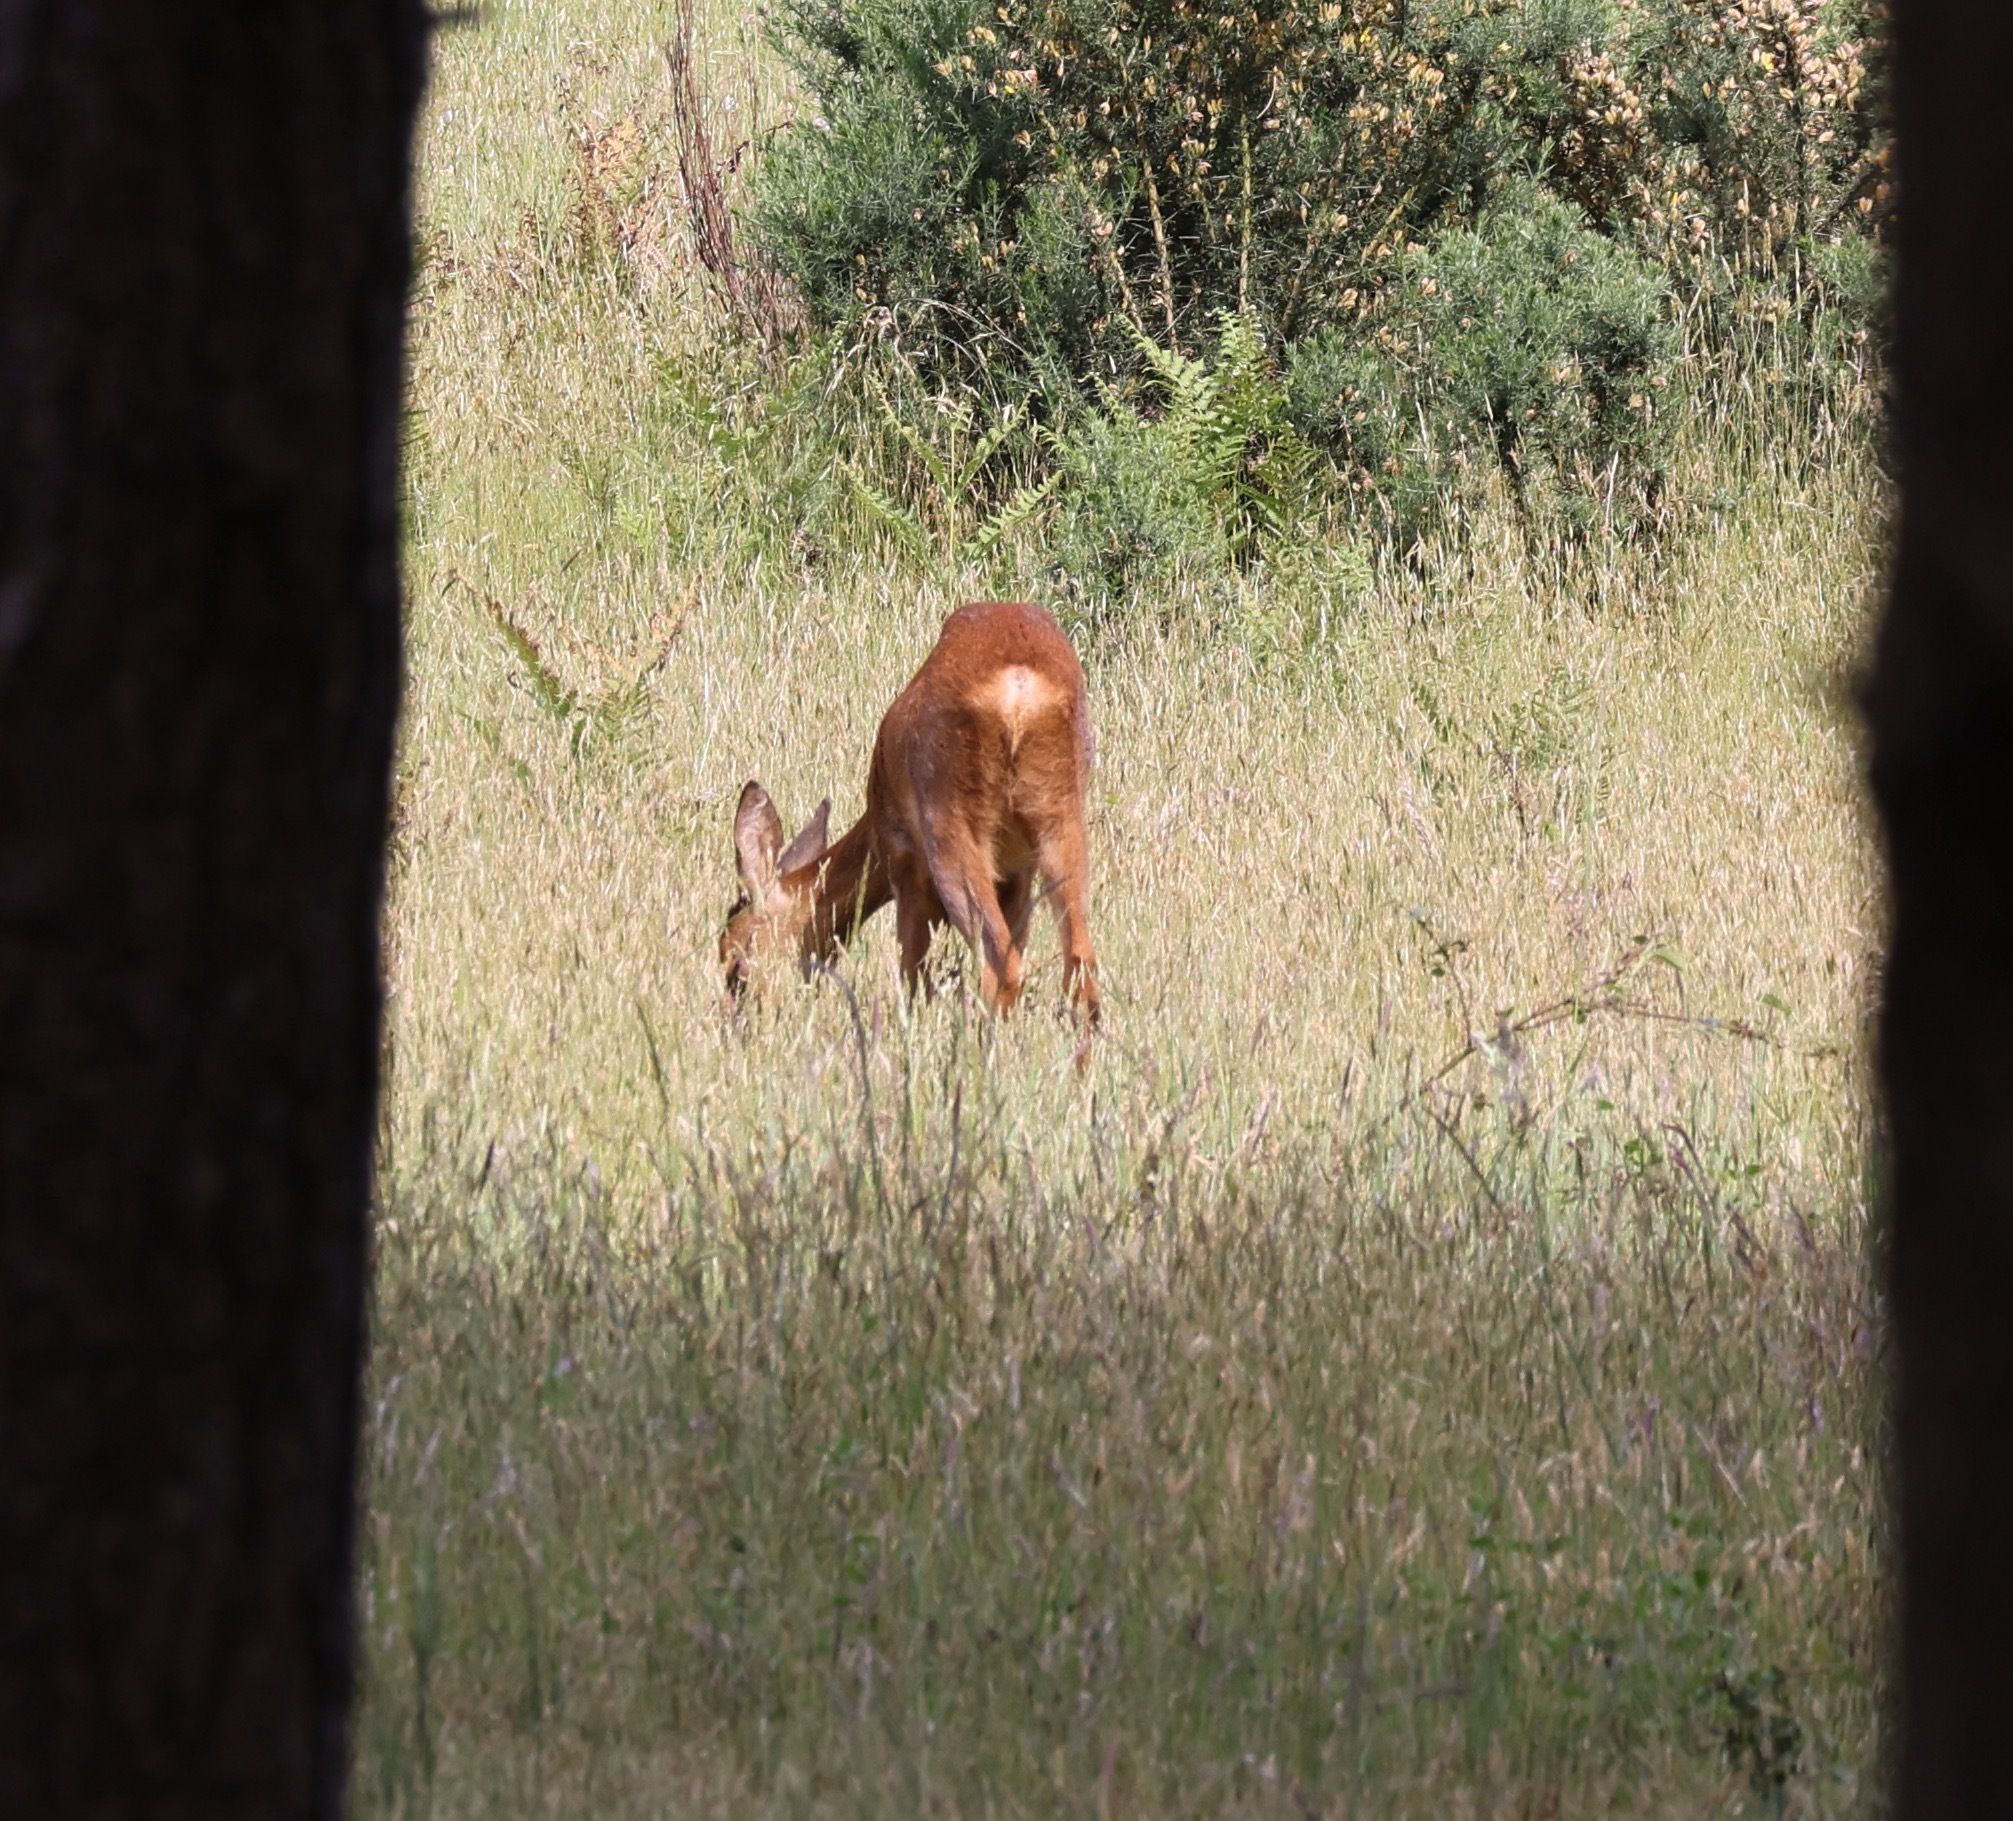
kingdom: Animalia
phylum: Chordata
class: Mammalia
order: Artiodactyla
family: Cervidae
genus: Capreolus
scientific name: Capreolus capreolus
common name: Western roe deer
